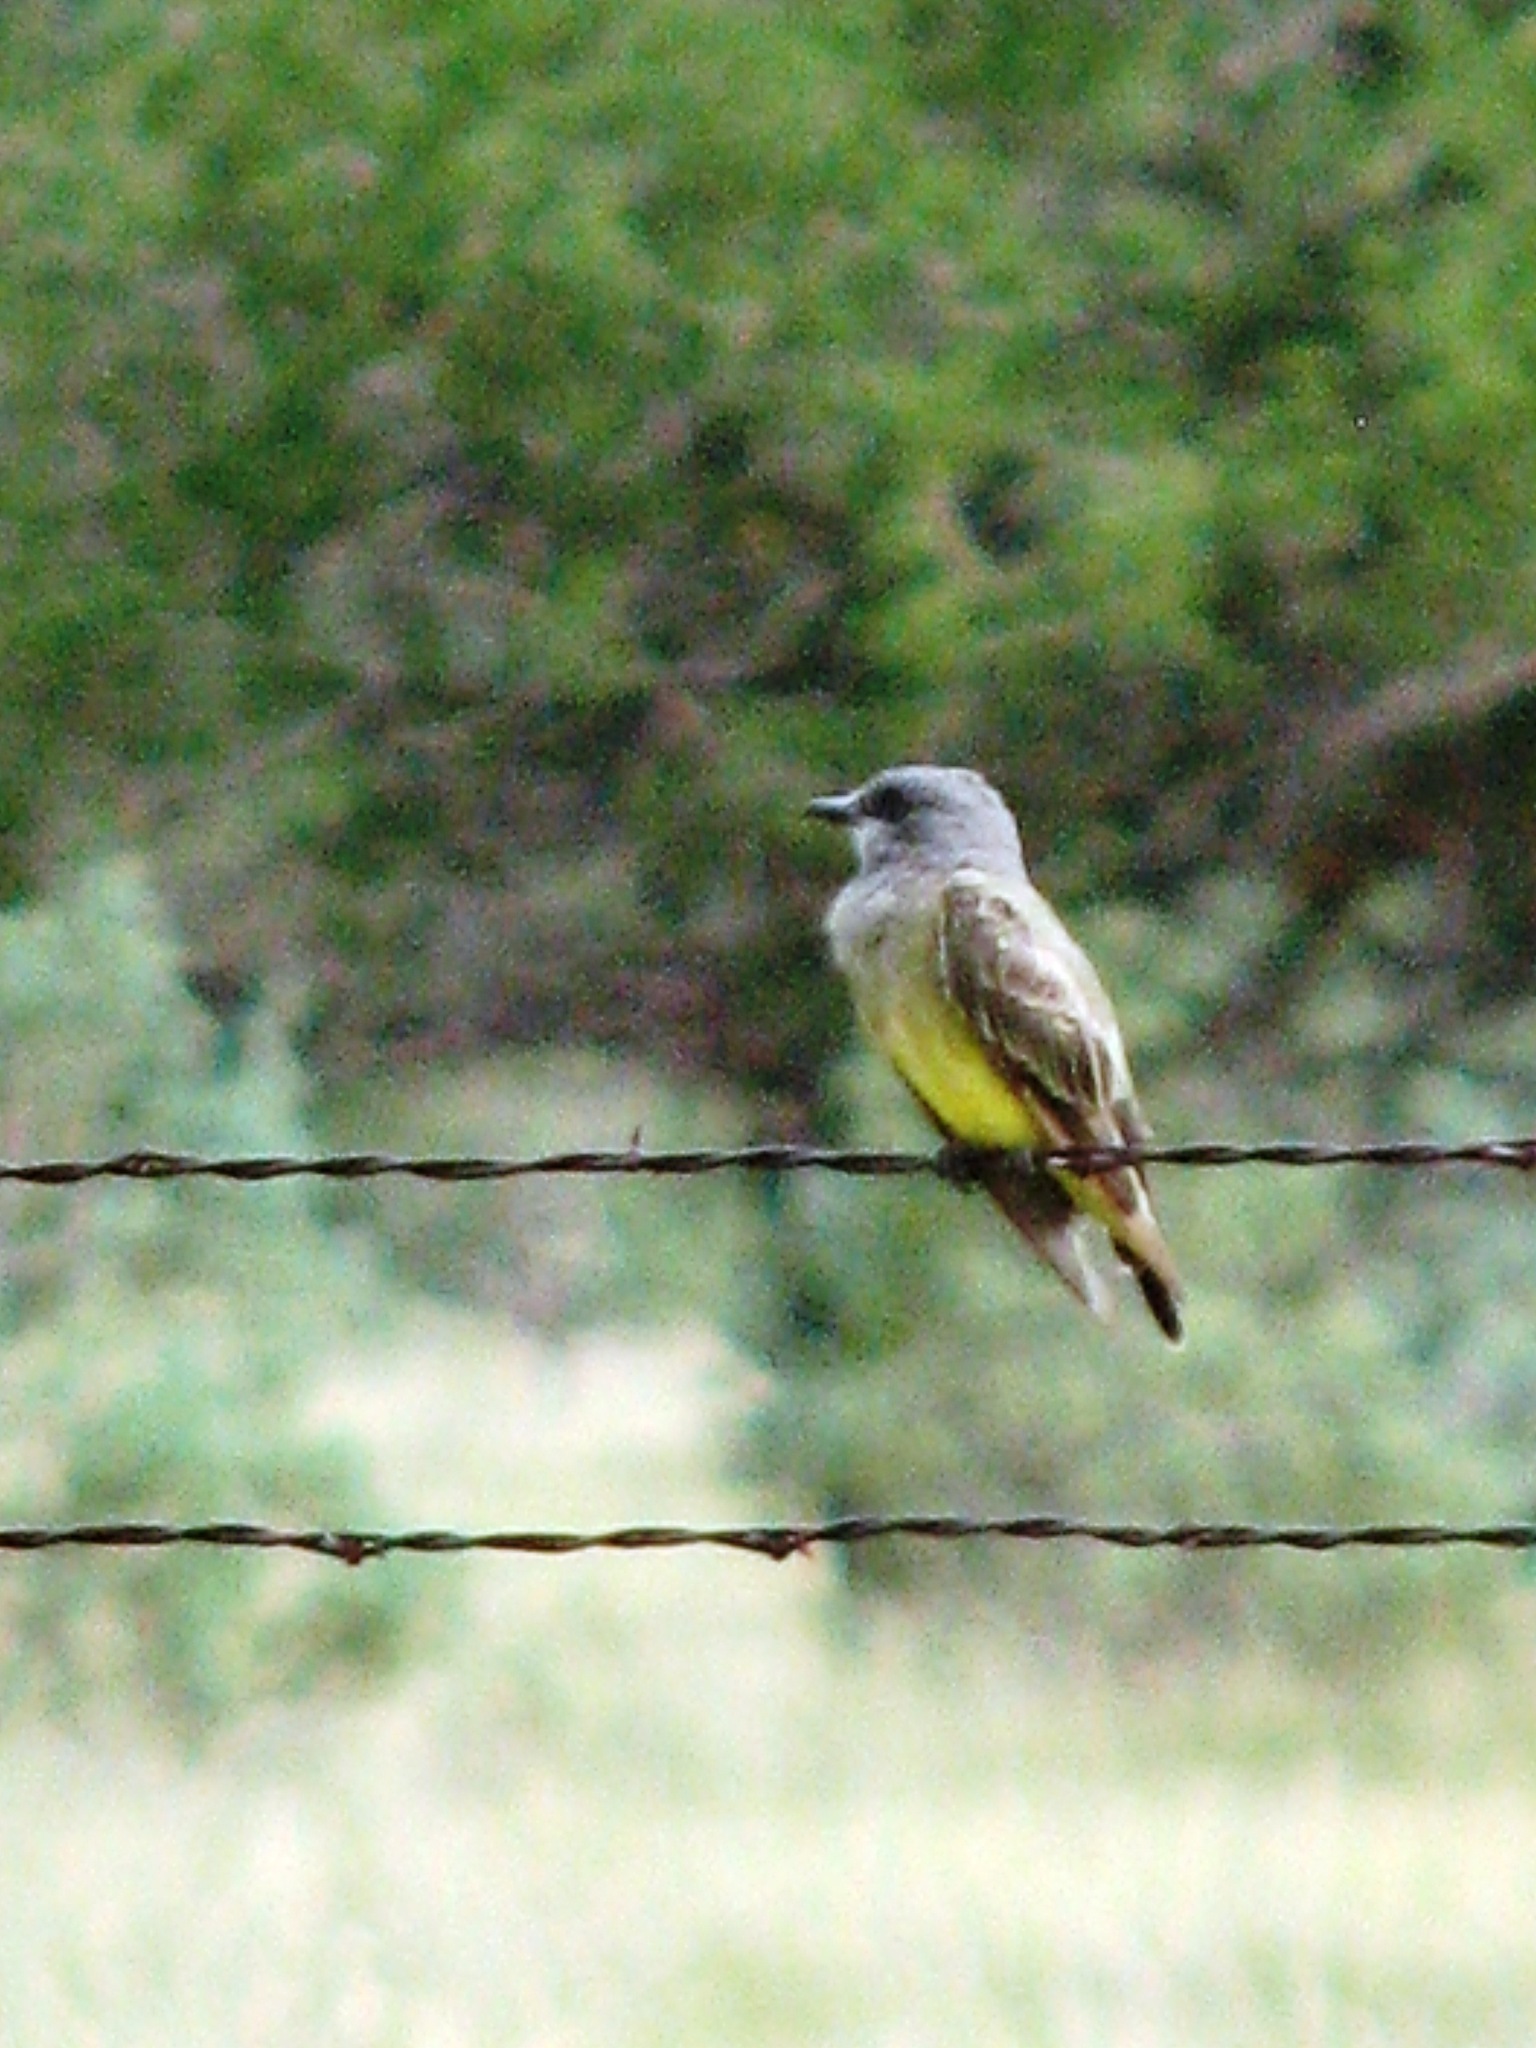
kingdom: Animalia
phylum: Chordata
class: Aves
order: Passeriformes
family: Tyrannidae
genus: Tyrannus
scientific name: Tyrannus vociferans
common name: Cassin's kingbird
